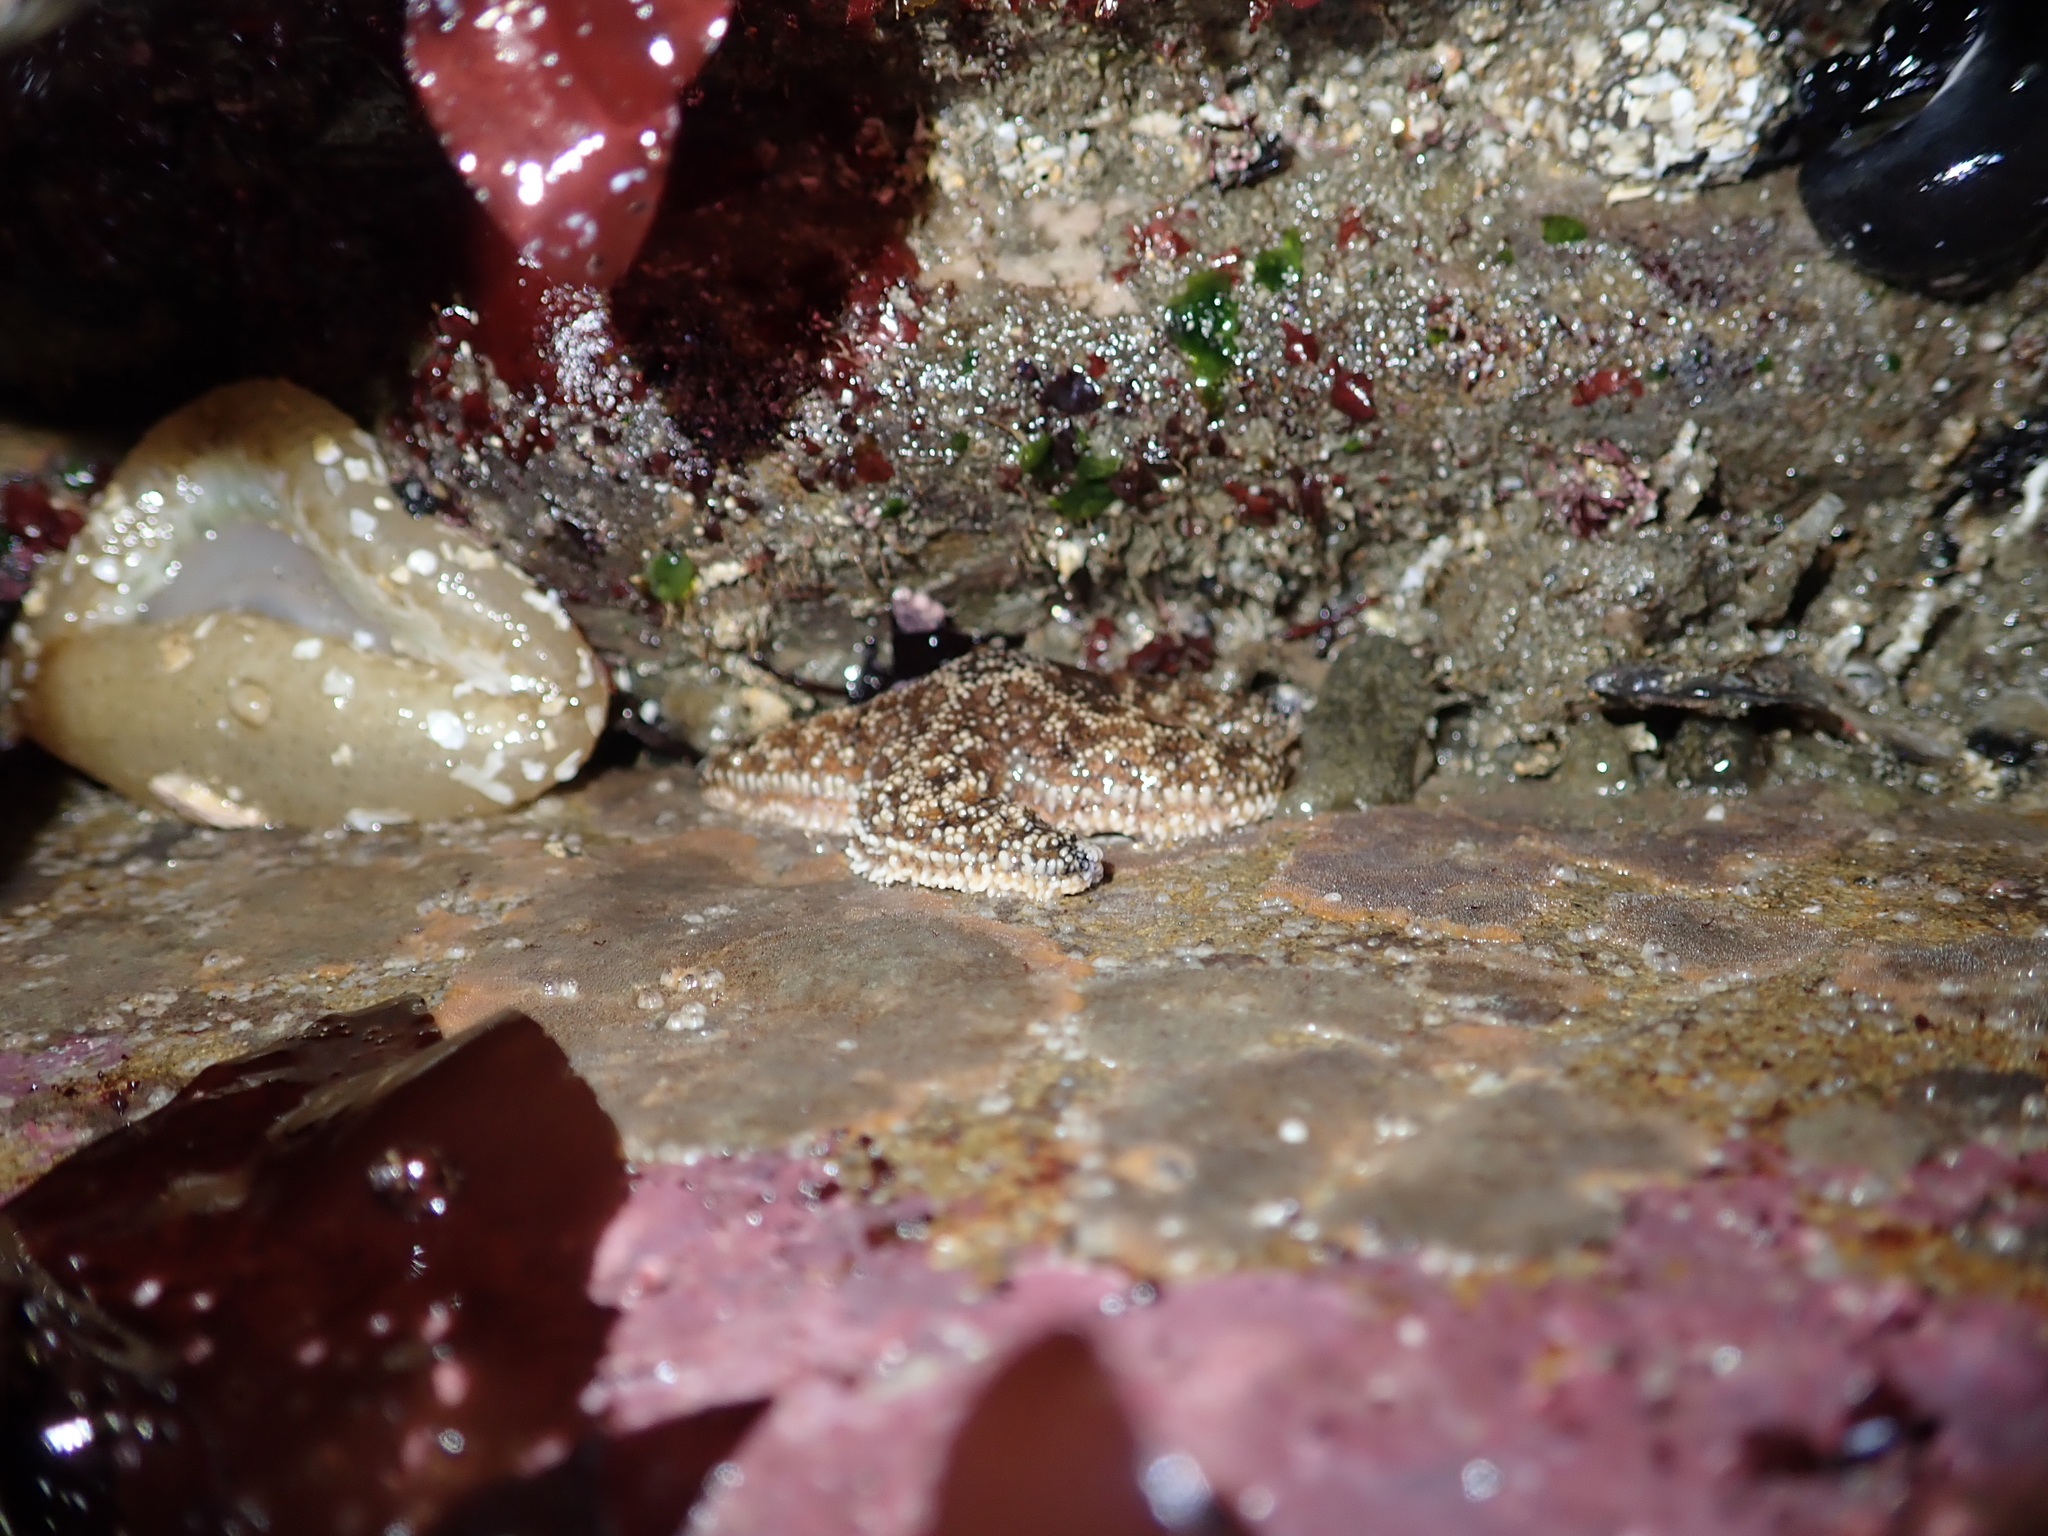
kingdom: Animalia
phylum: Echinodermata
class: Asteroidea
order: Forcipulatida
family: Asteriidae
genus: Pisaster
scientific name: Pisaster ochraceus
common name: Ochre stars
